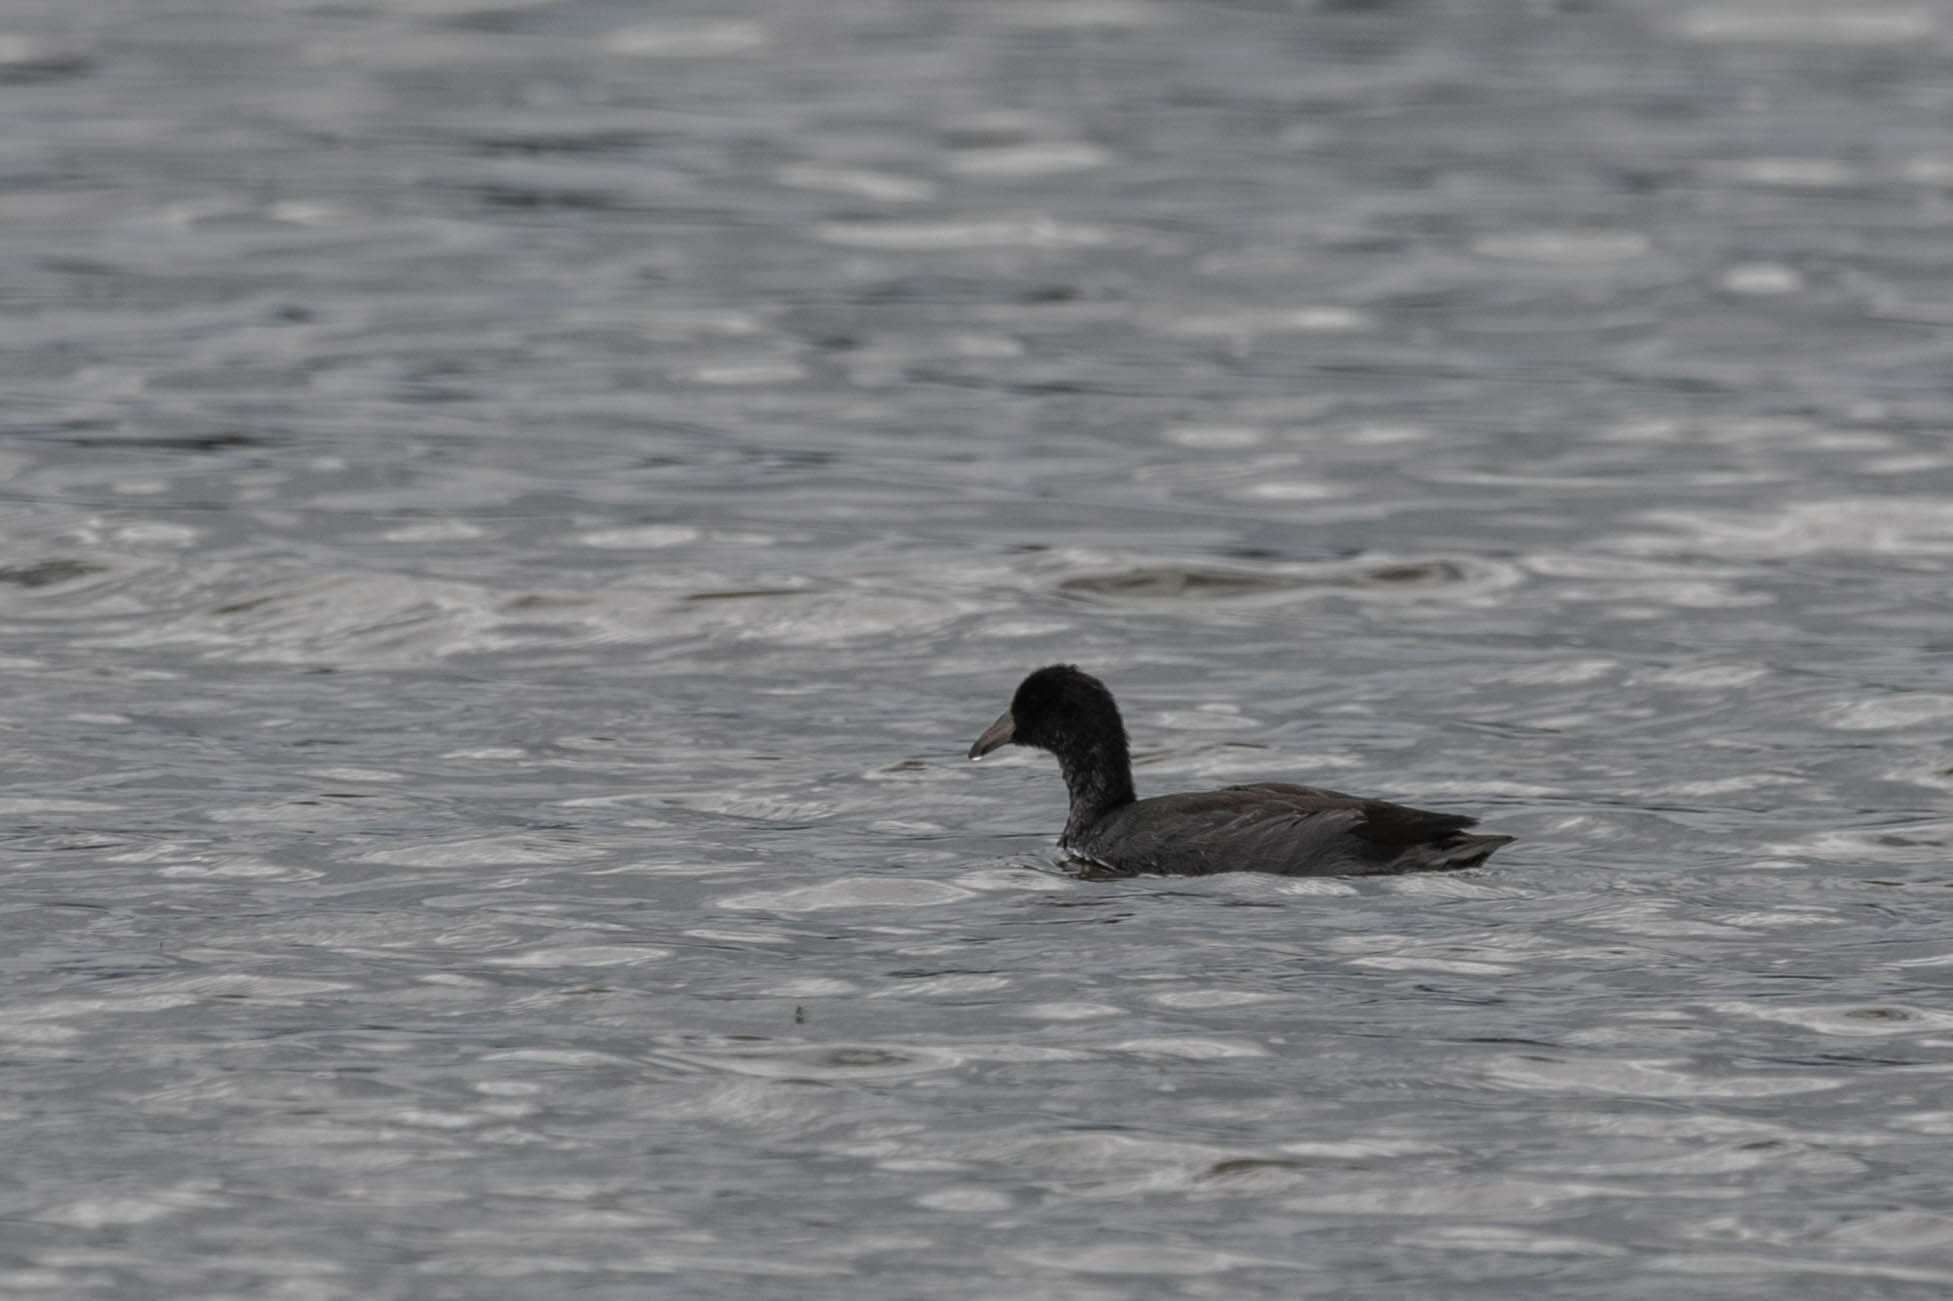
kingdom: Animalia
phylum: Chordata
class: Aves
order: Gruiformes
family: Rallidae
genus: Fulica
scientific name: Fulica americana
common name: American coot
